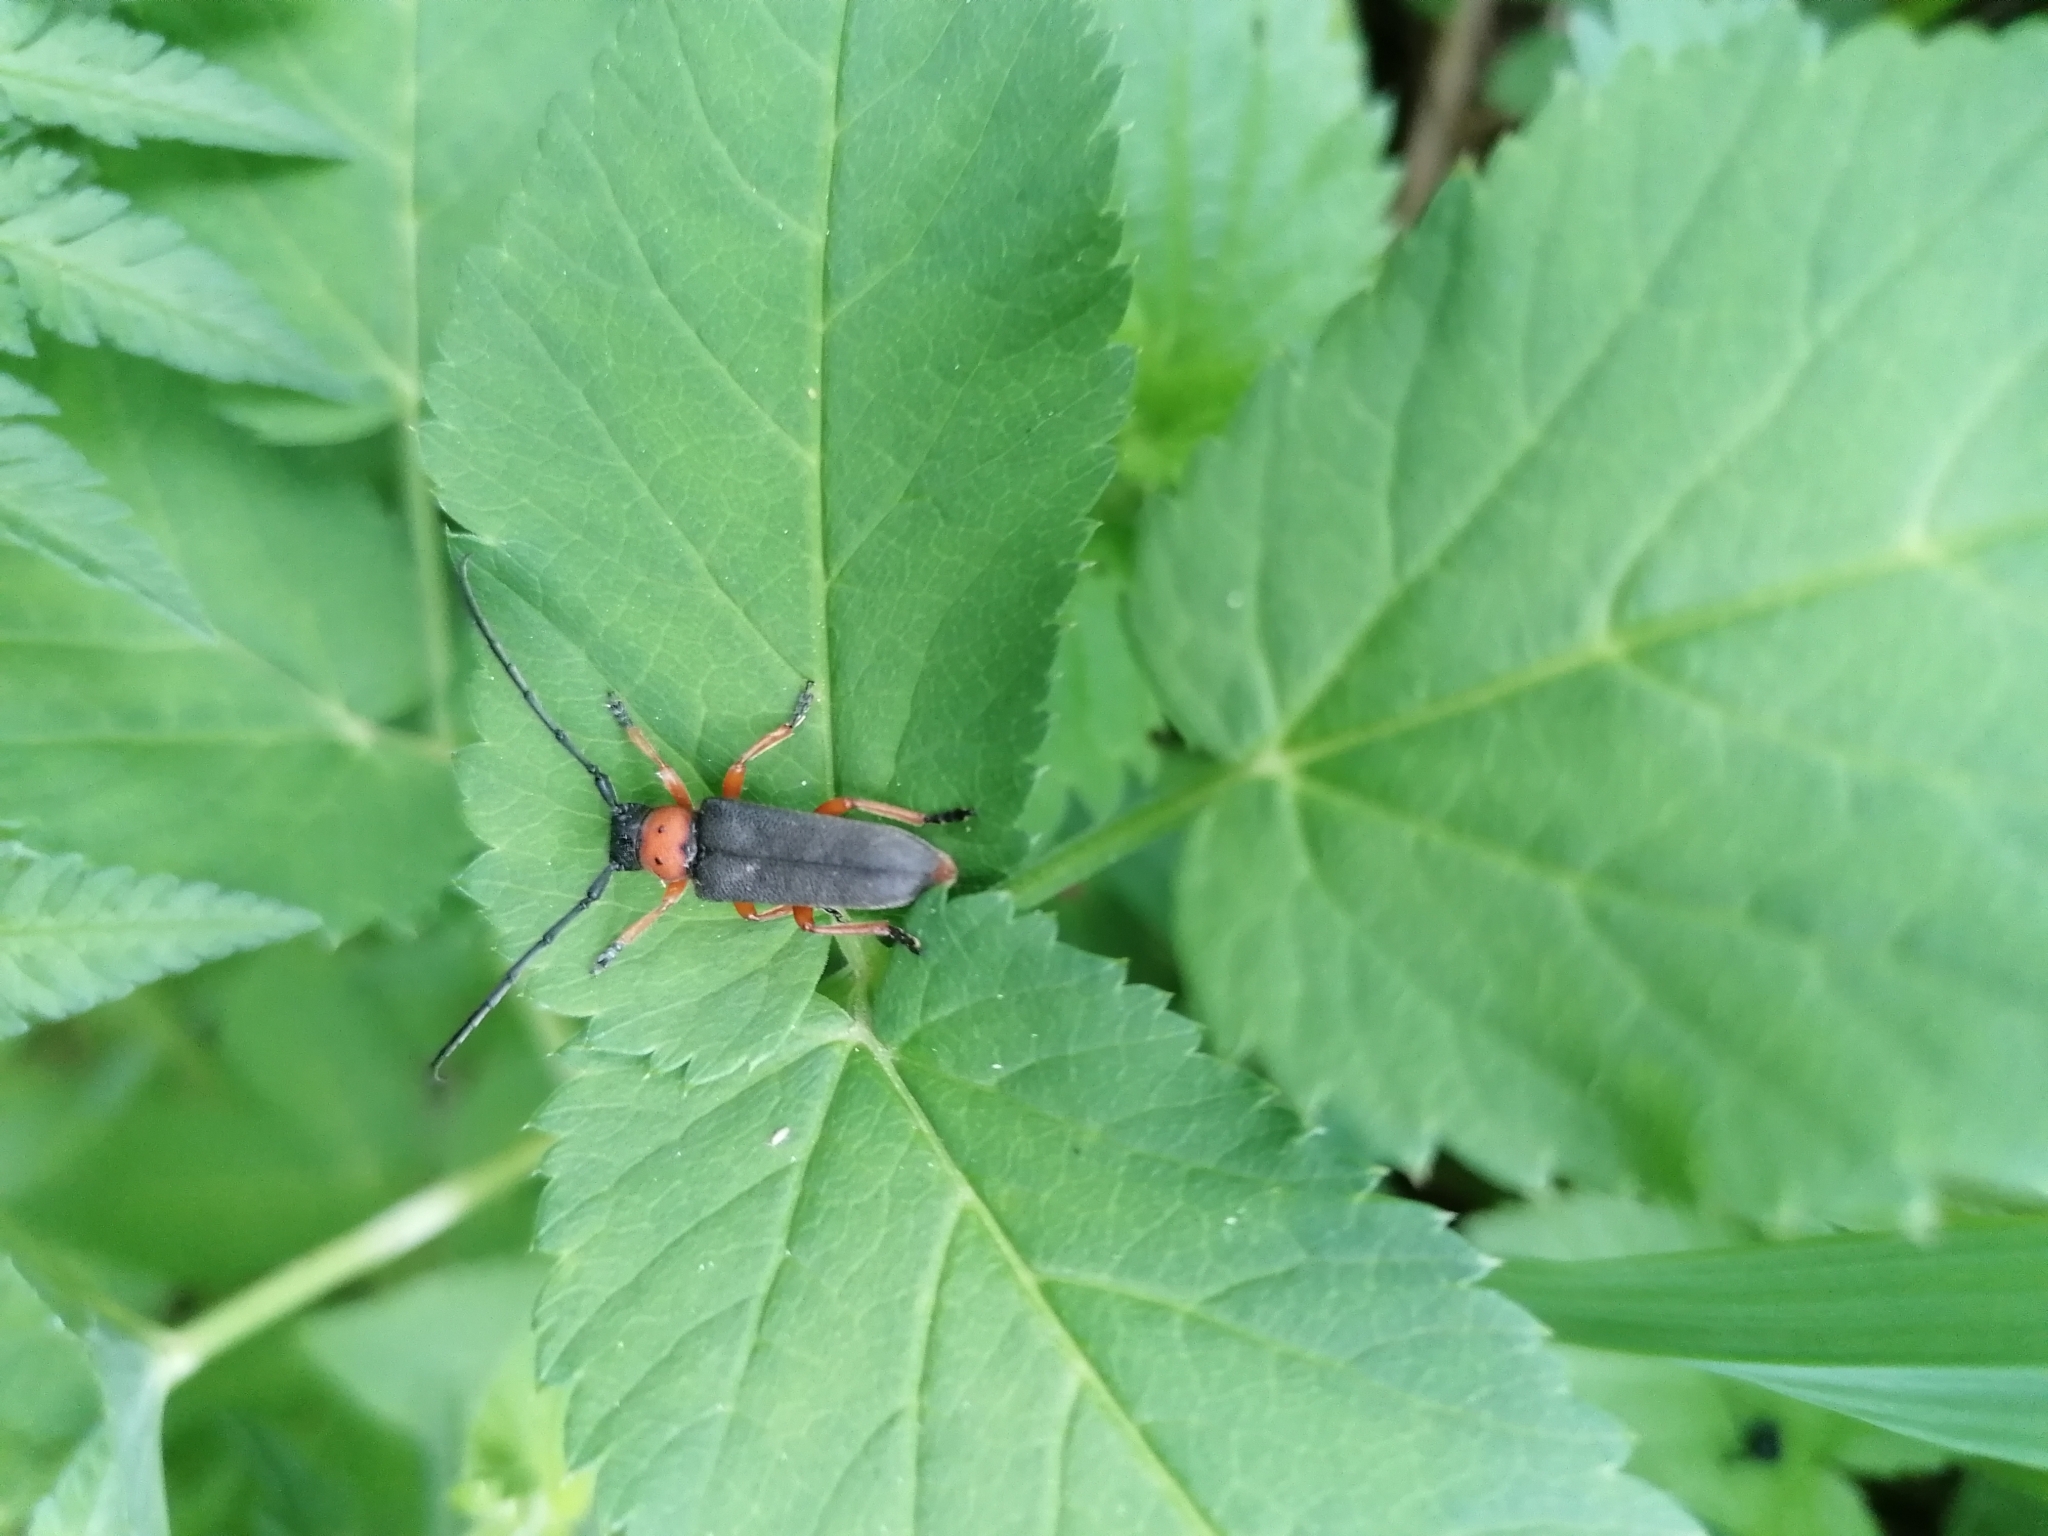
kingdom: Animalia
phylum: Arthropoda
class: Insecta
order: Coleoptera
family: Cerambycidae
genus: Phytoecia
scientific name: Phytoecia affinis
